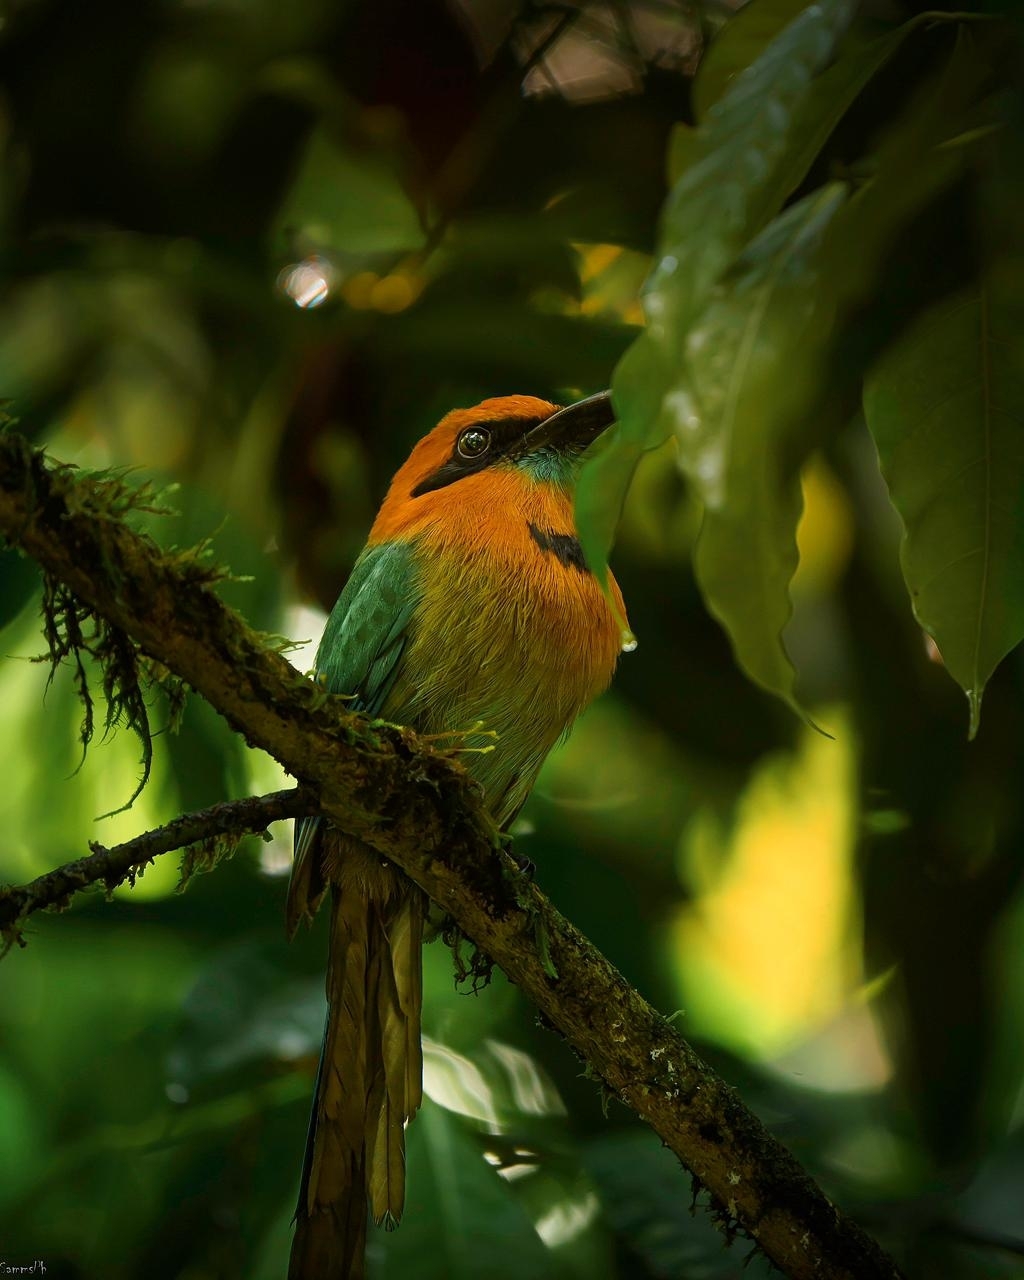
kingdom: Animalia
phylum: Chordata
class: Aves
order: Coraciiformes
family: Momotidae
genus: Electron
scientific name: Electron platyrhynchum
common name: Broad-billed motmot
